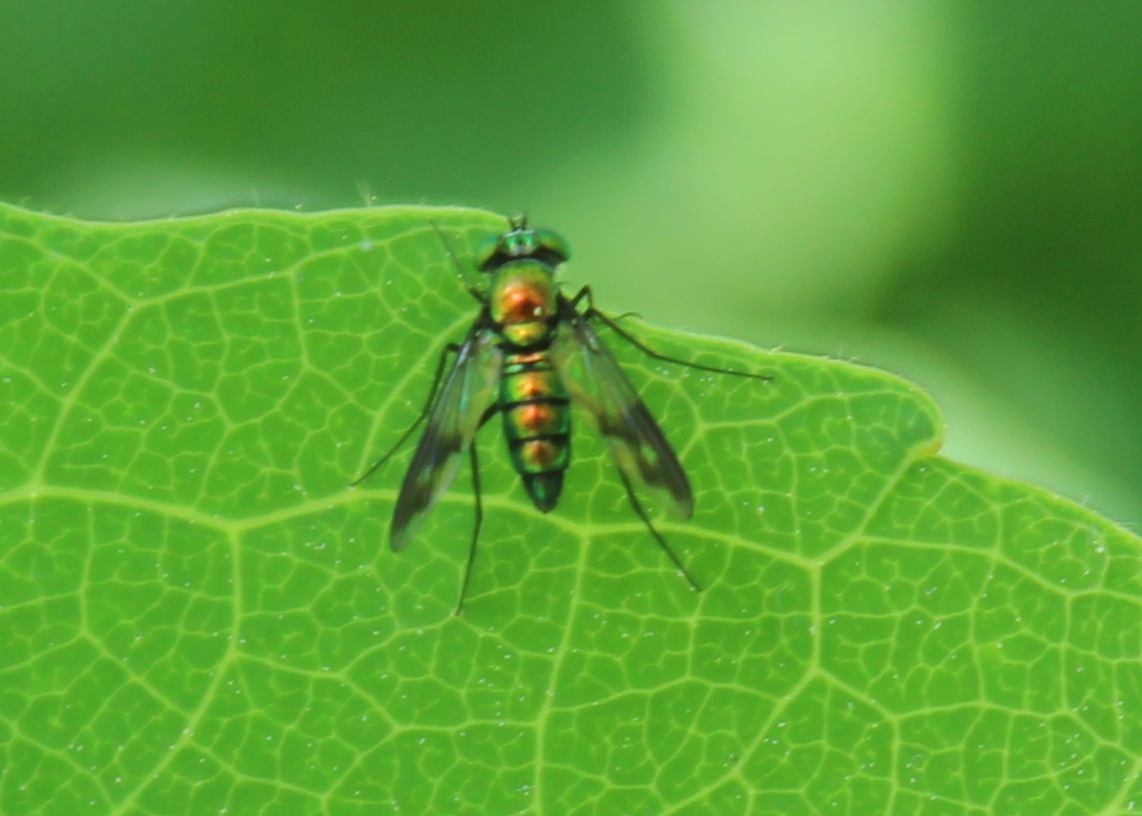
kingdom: Animalia
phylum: Arthropoda
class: Insecta
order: Diptera
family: Dolichopodidae
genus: Condylostylus
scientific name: Condylostylus patibulatus
